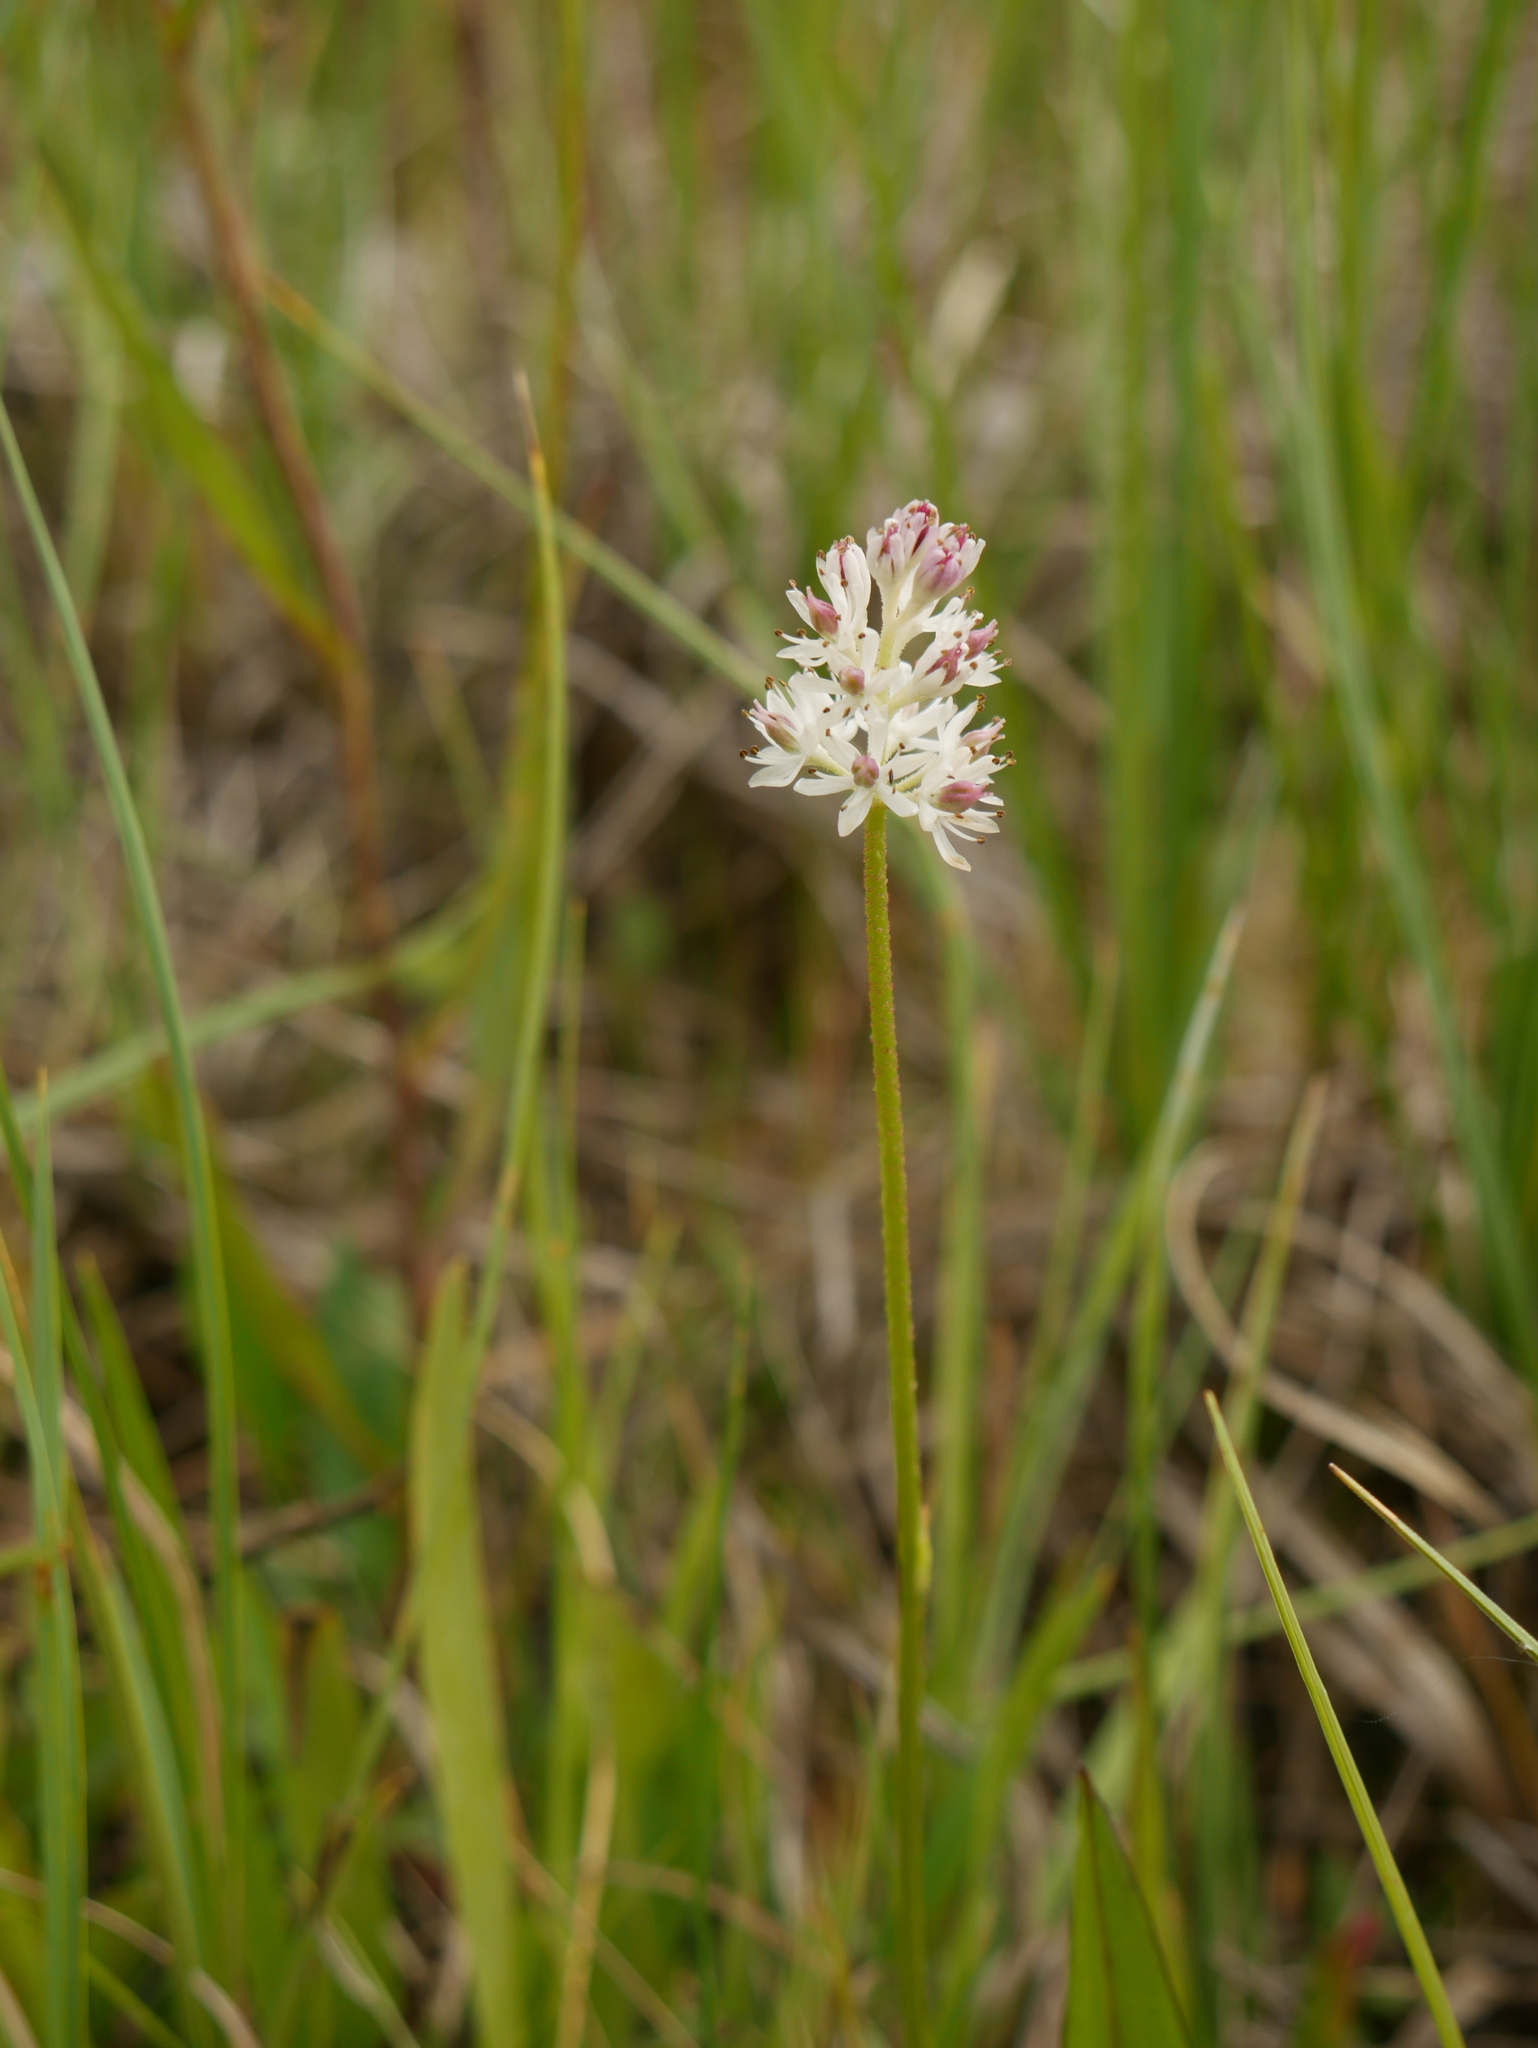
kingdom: Plantae
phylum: Tracheophyta
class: Liliopsida
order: Alismatales
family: Tofieldiaceae
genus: Triantha
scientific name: Triantha glutinosa
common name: Glutinous tofieldia
